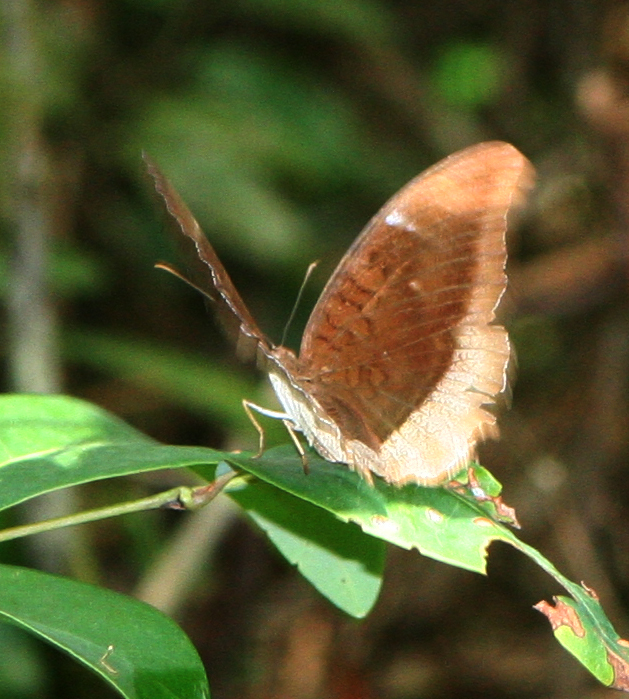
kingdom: Animalia
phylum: Arthropoda
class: Insecta
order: Lepidoptera
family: Nymphalidae
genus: Tanaecia
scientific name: Tanaecia lepidea
